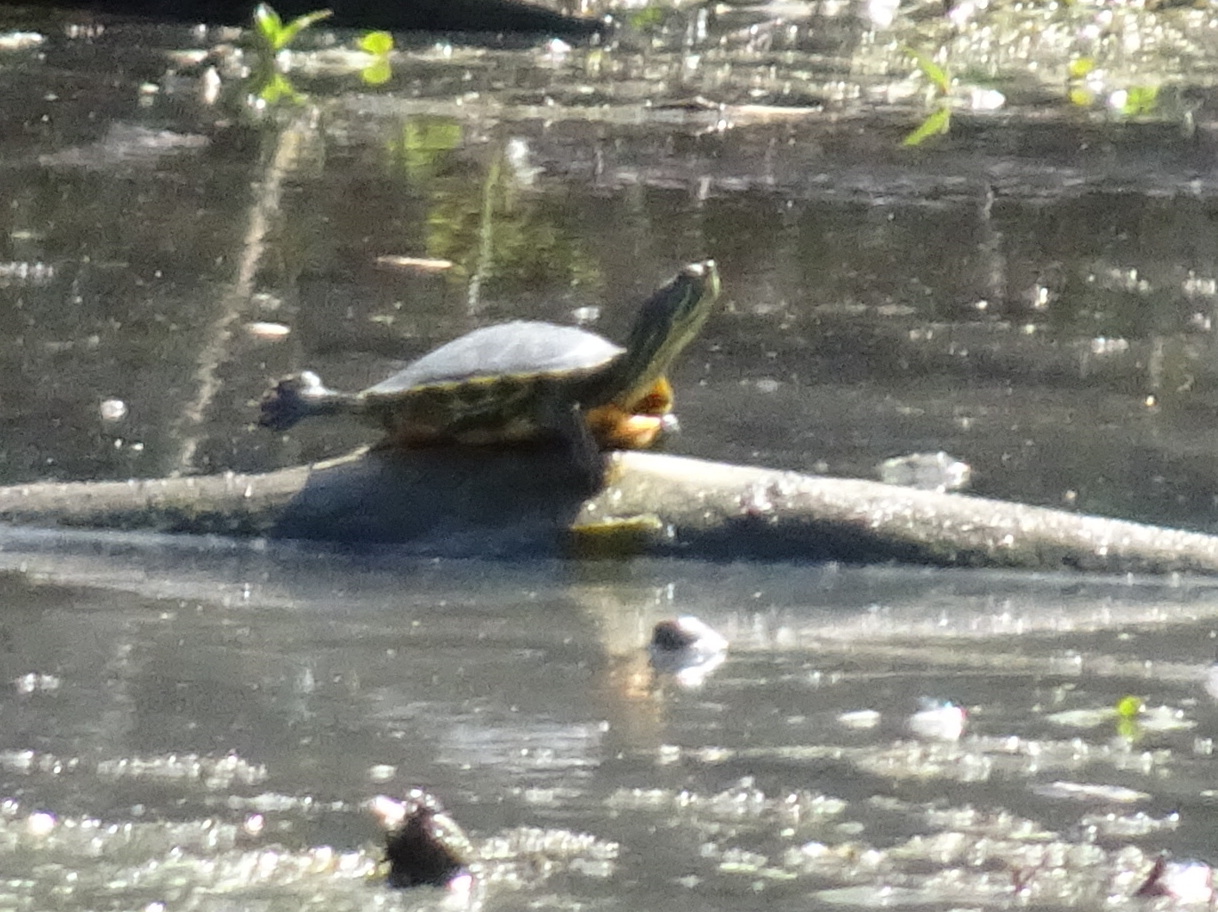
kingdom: Animalia
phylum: Chordata
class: Testudines
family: Emydidae
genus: Trachemys
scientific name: Trachemys scripta
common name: Slider
